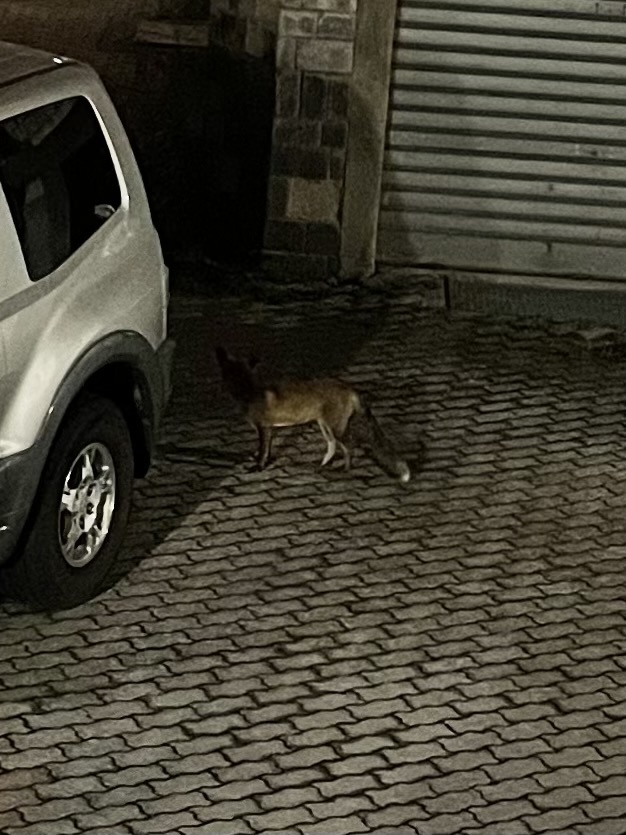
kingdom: Animalia
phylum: Chordata
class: Mammalia
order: Carnivora
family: Canidae
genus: Vulpes
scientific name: Vulpes vulpes
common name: Red fox
